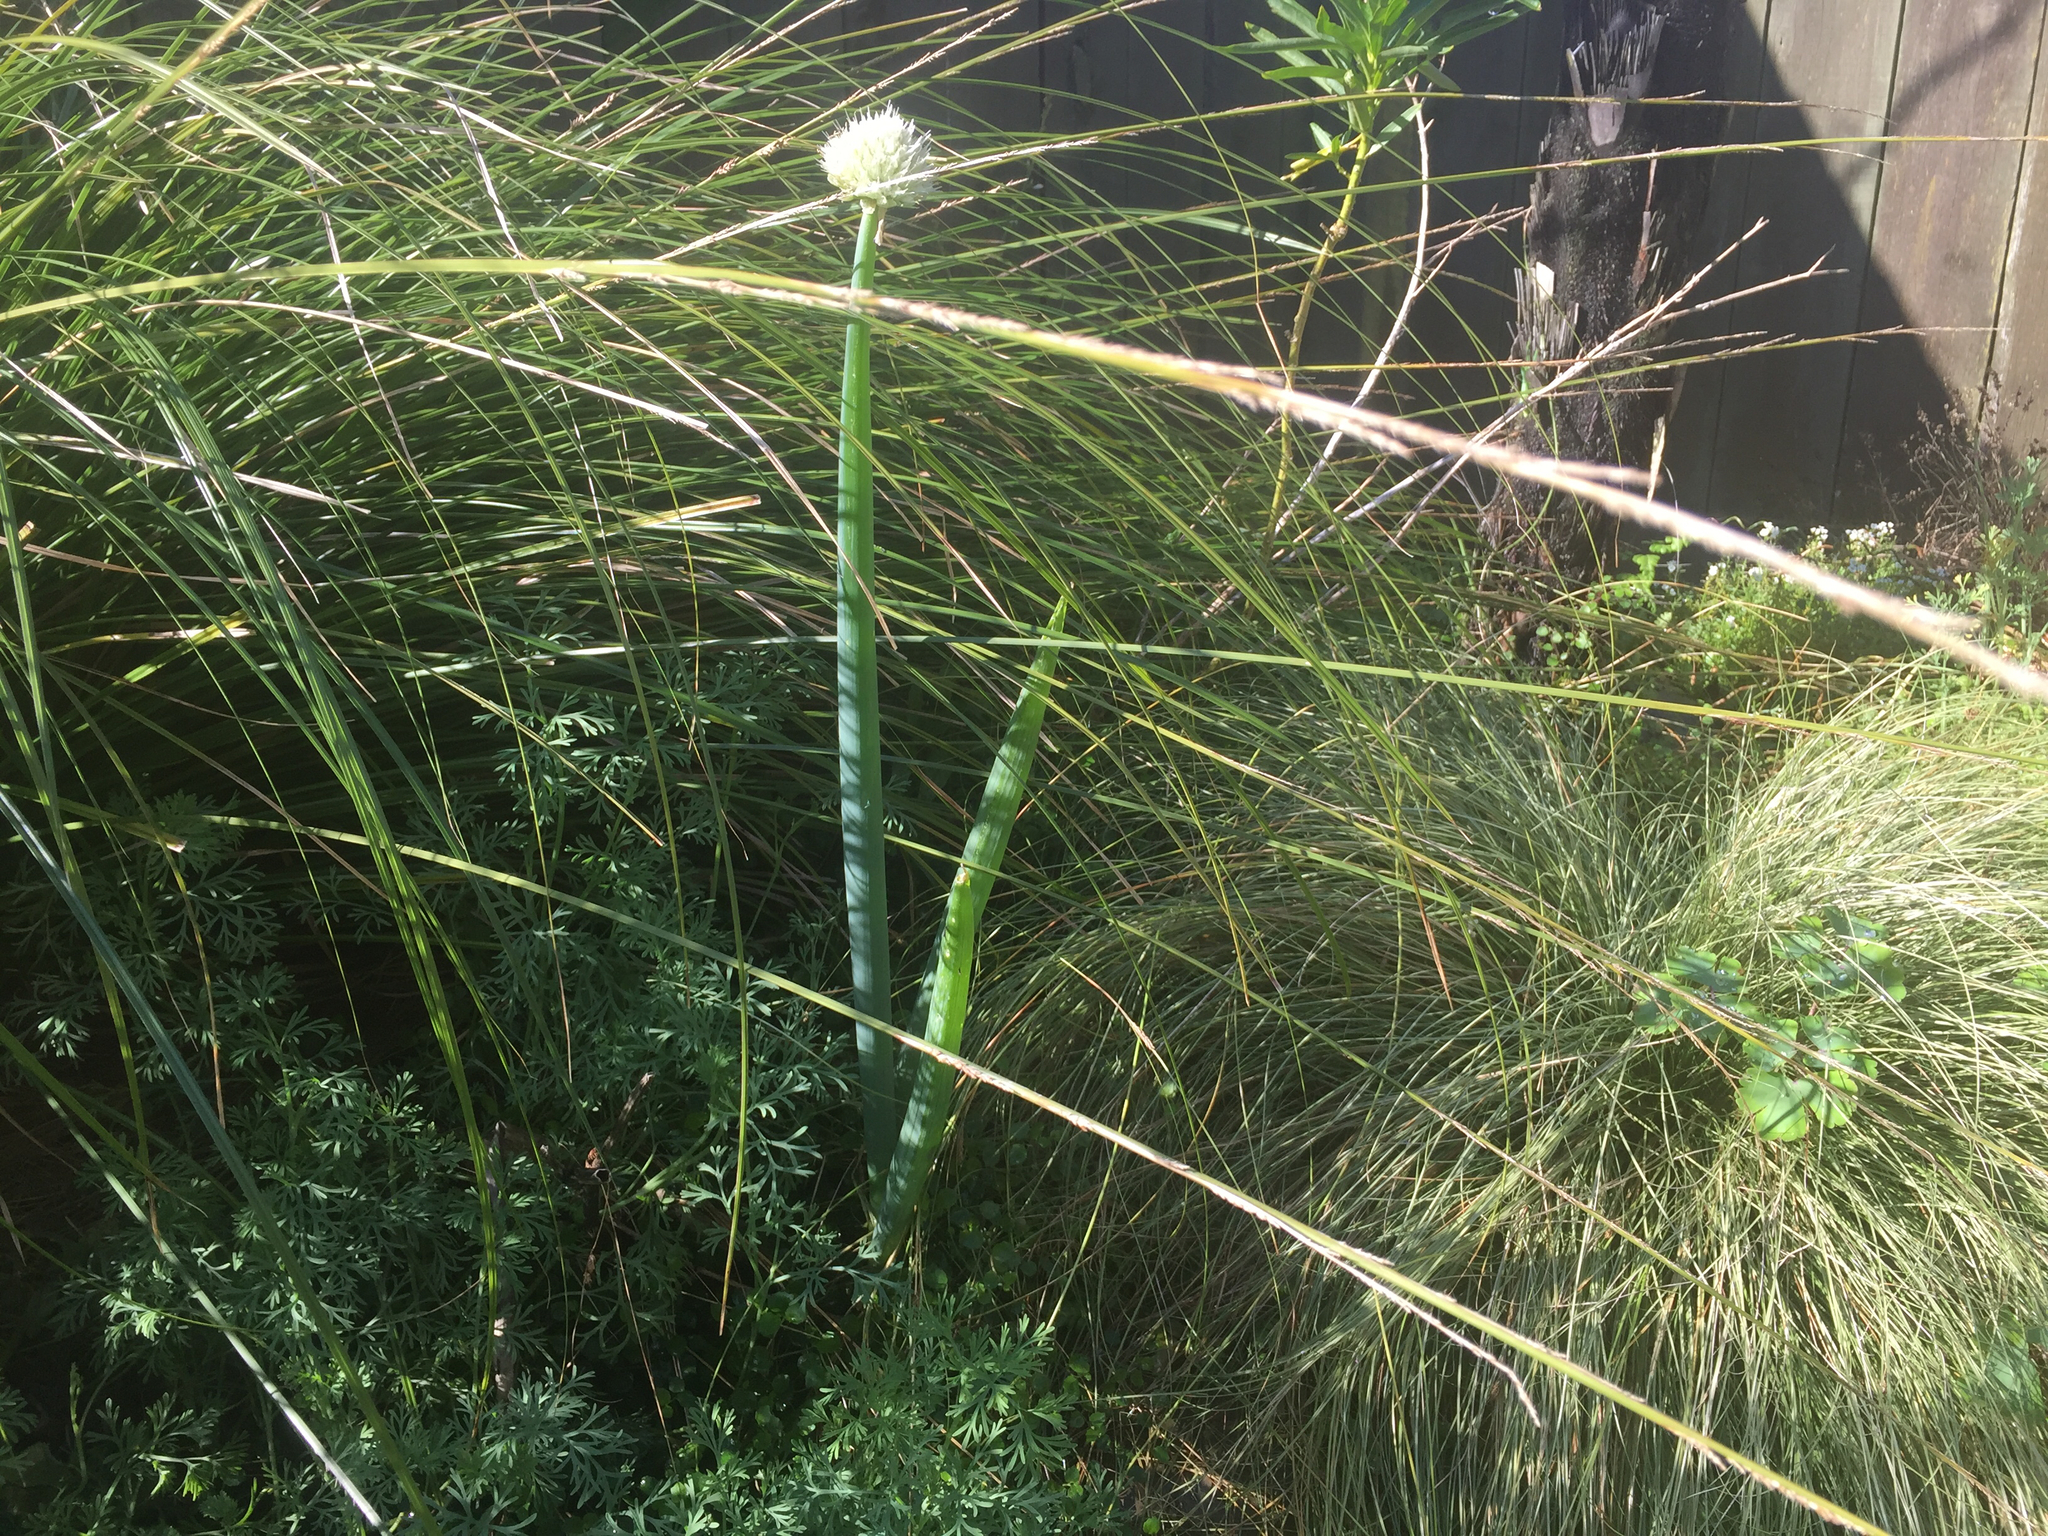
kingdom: Plantae
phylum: Tracheophyta
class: Liliopsida
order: Asparagales
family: Amaryllidaceae
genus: Allium
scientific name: Allium fistulosum
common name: Welsh onion
